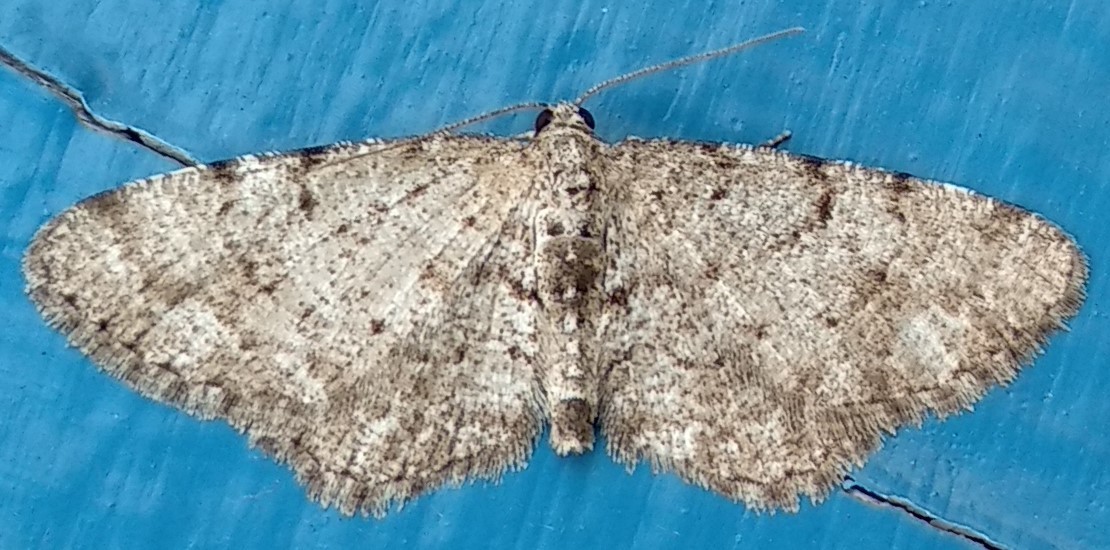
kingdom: Animalia
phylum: Arthropoda
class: Insecta
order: Lepidoptera
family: Geometridae
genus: Aethalura
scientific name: Aethalura intertexta
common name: Four-barred gray
